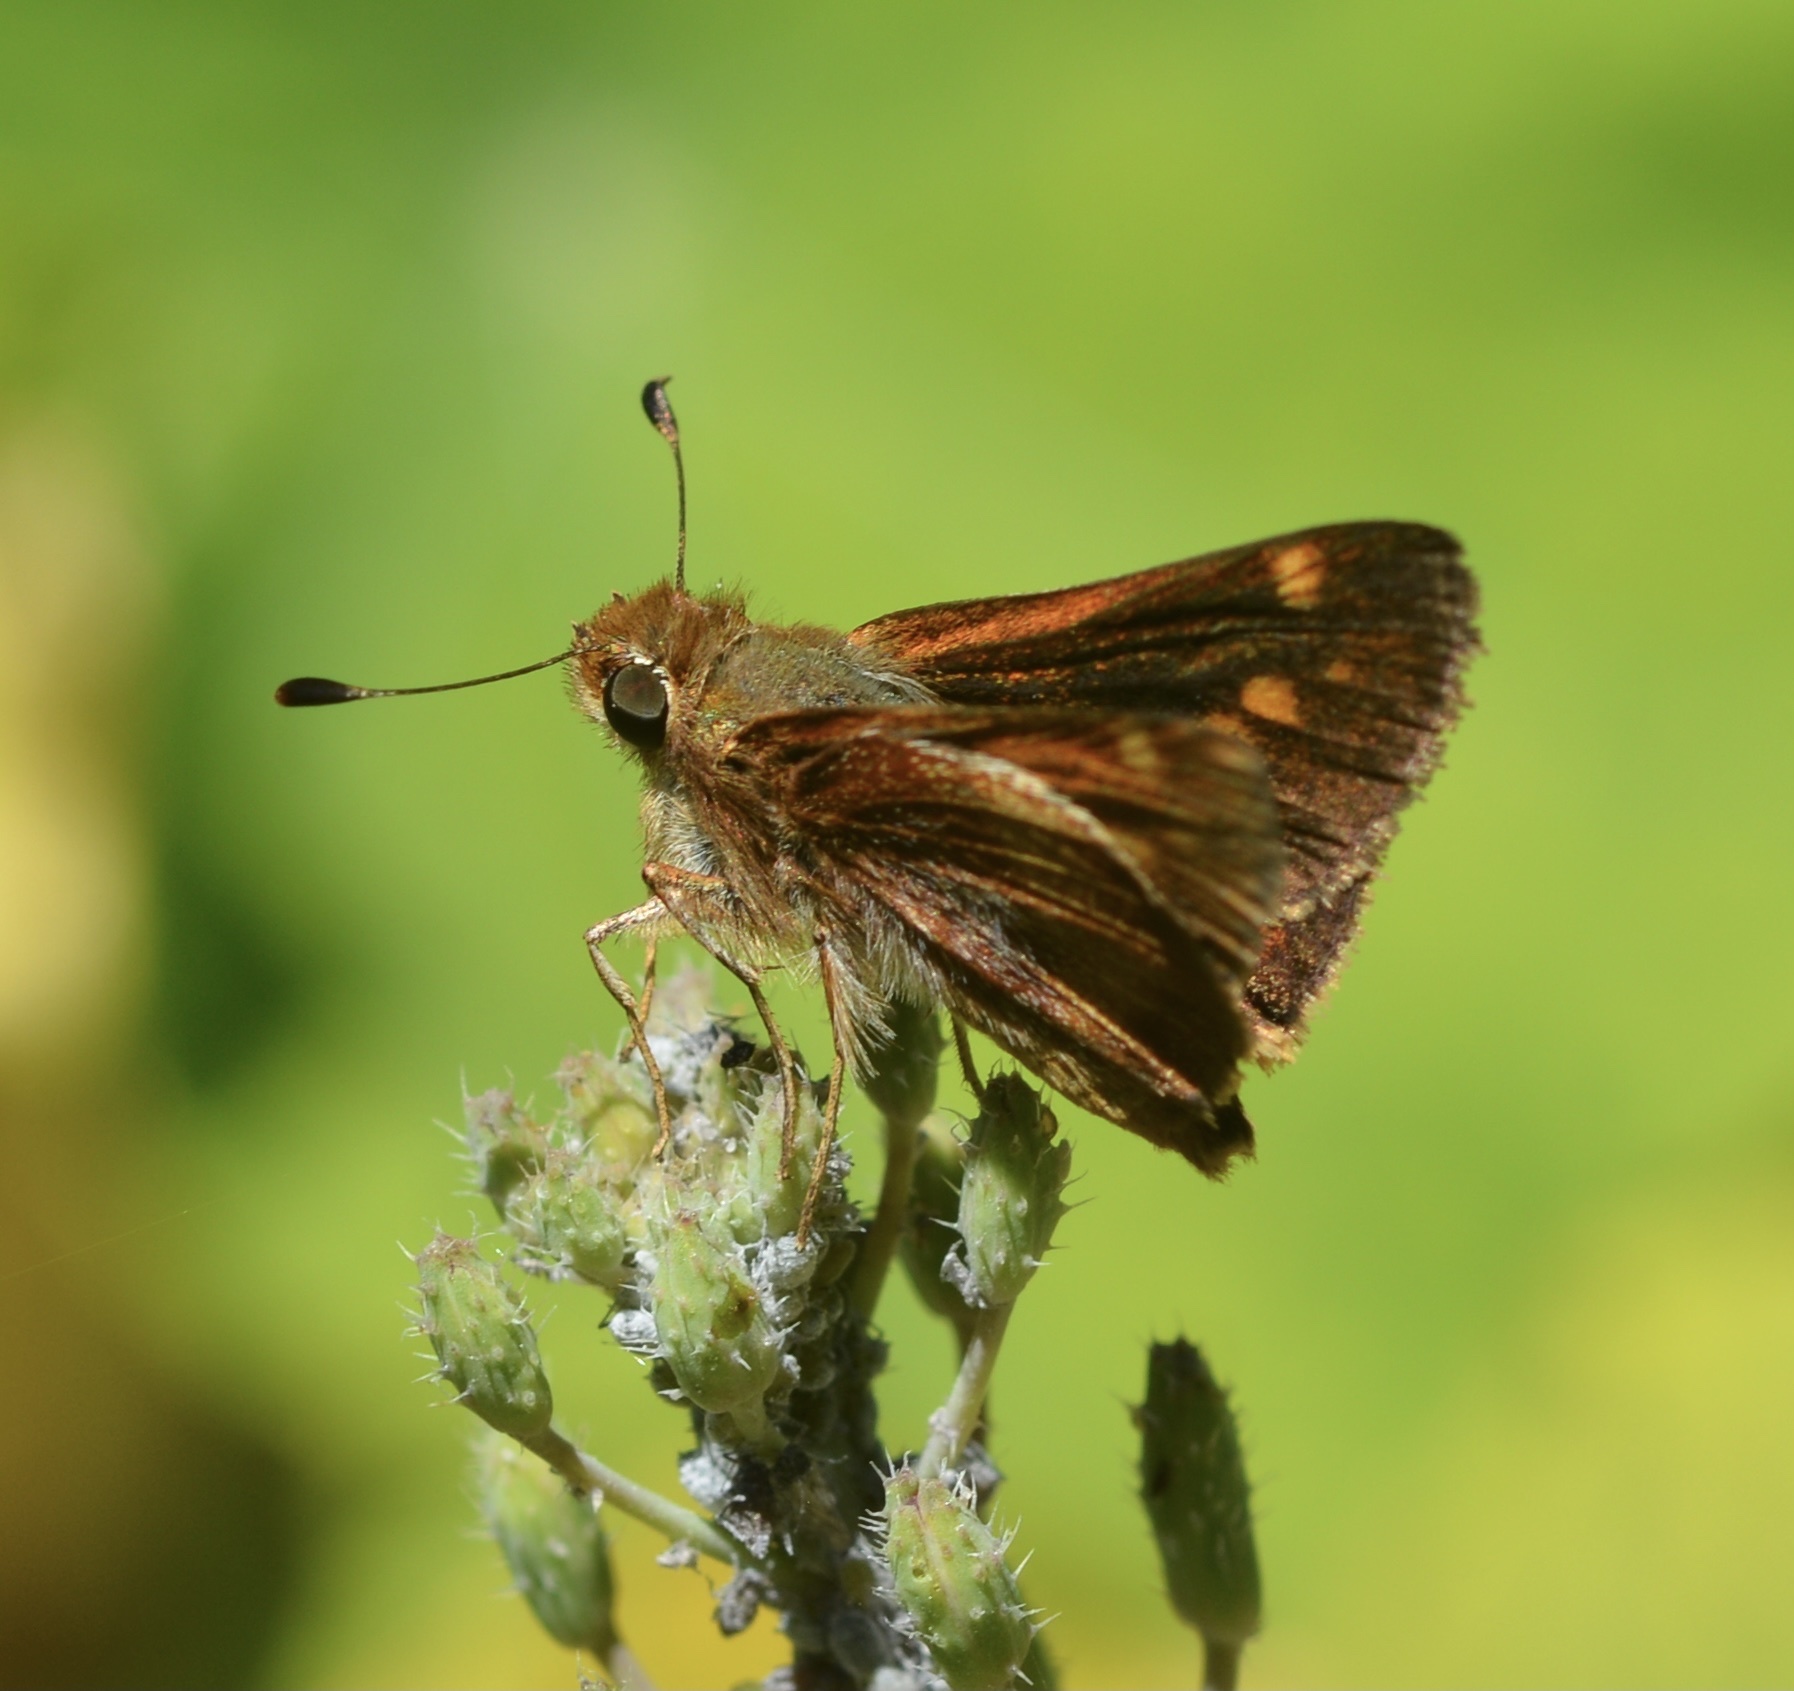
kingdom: Animalia
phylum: Arthropoda
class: Insecta
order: Lepidoptera
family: Hesperiidae
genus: Lon
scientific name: Lon melane
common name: Umber skipper
